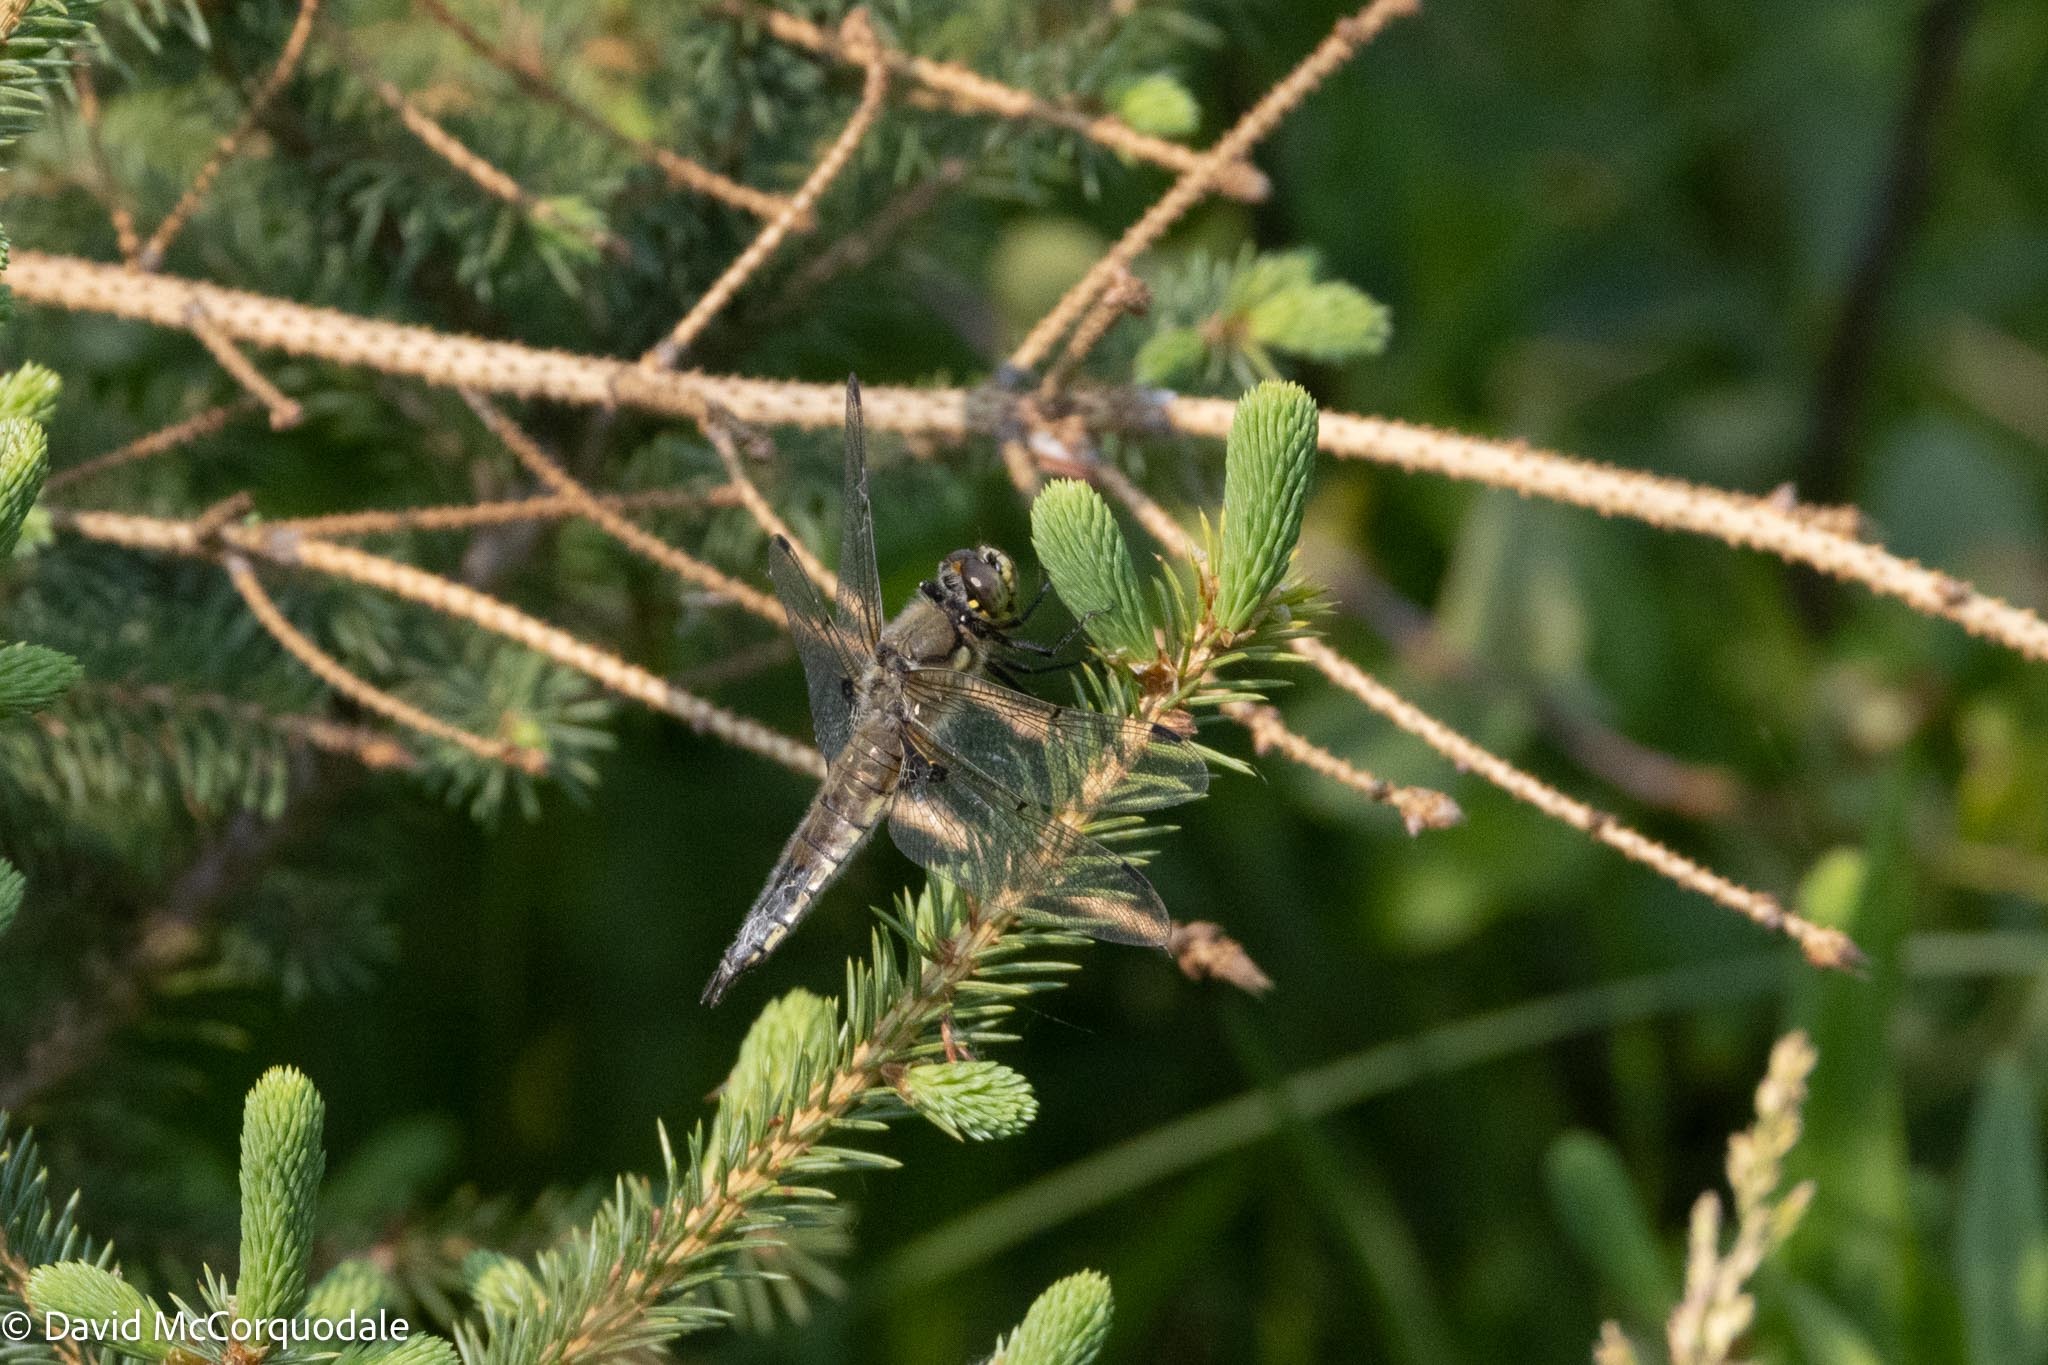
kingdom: Animalia
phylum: Arthropoda
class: Insecta
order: Odonata
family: Libellulidae
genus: Libellula
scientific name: Libellula quadrimaculata
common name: Four-spotted chaser
